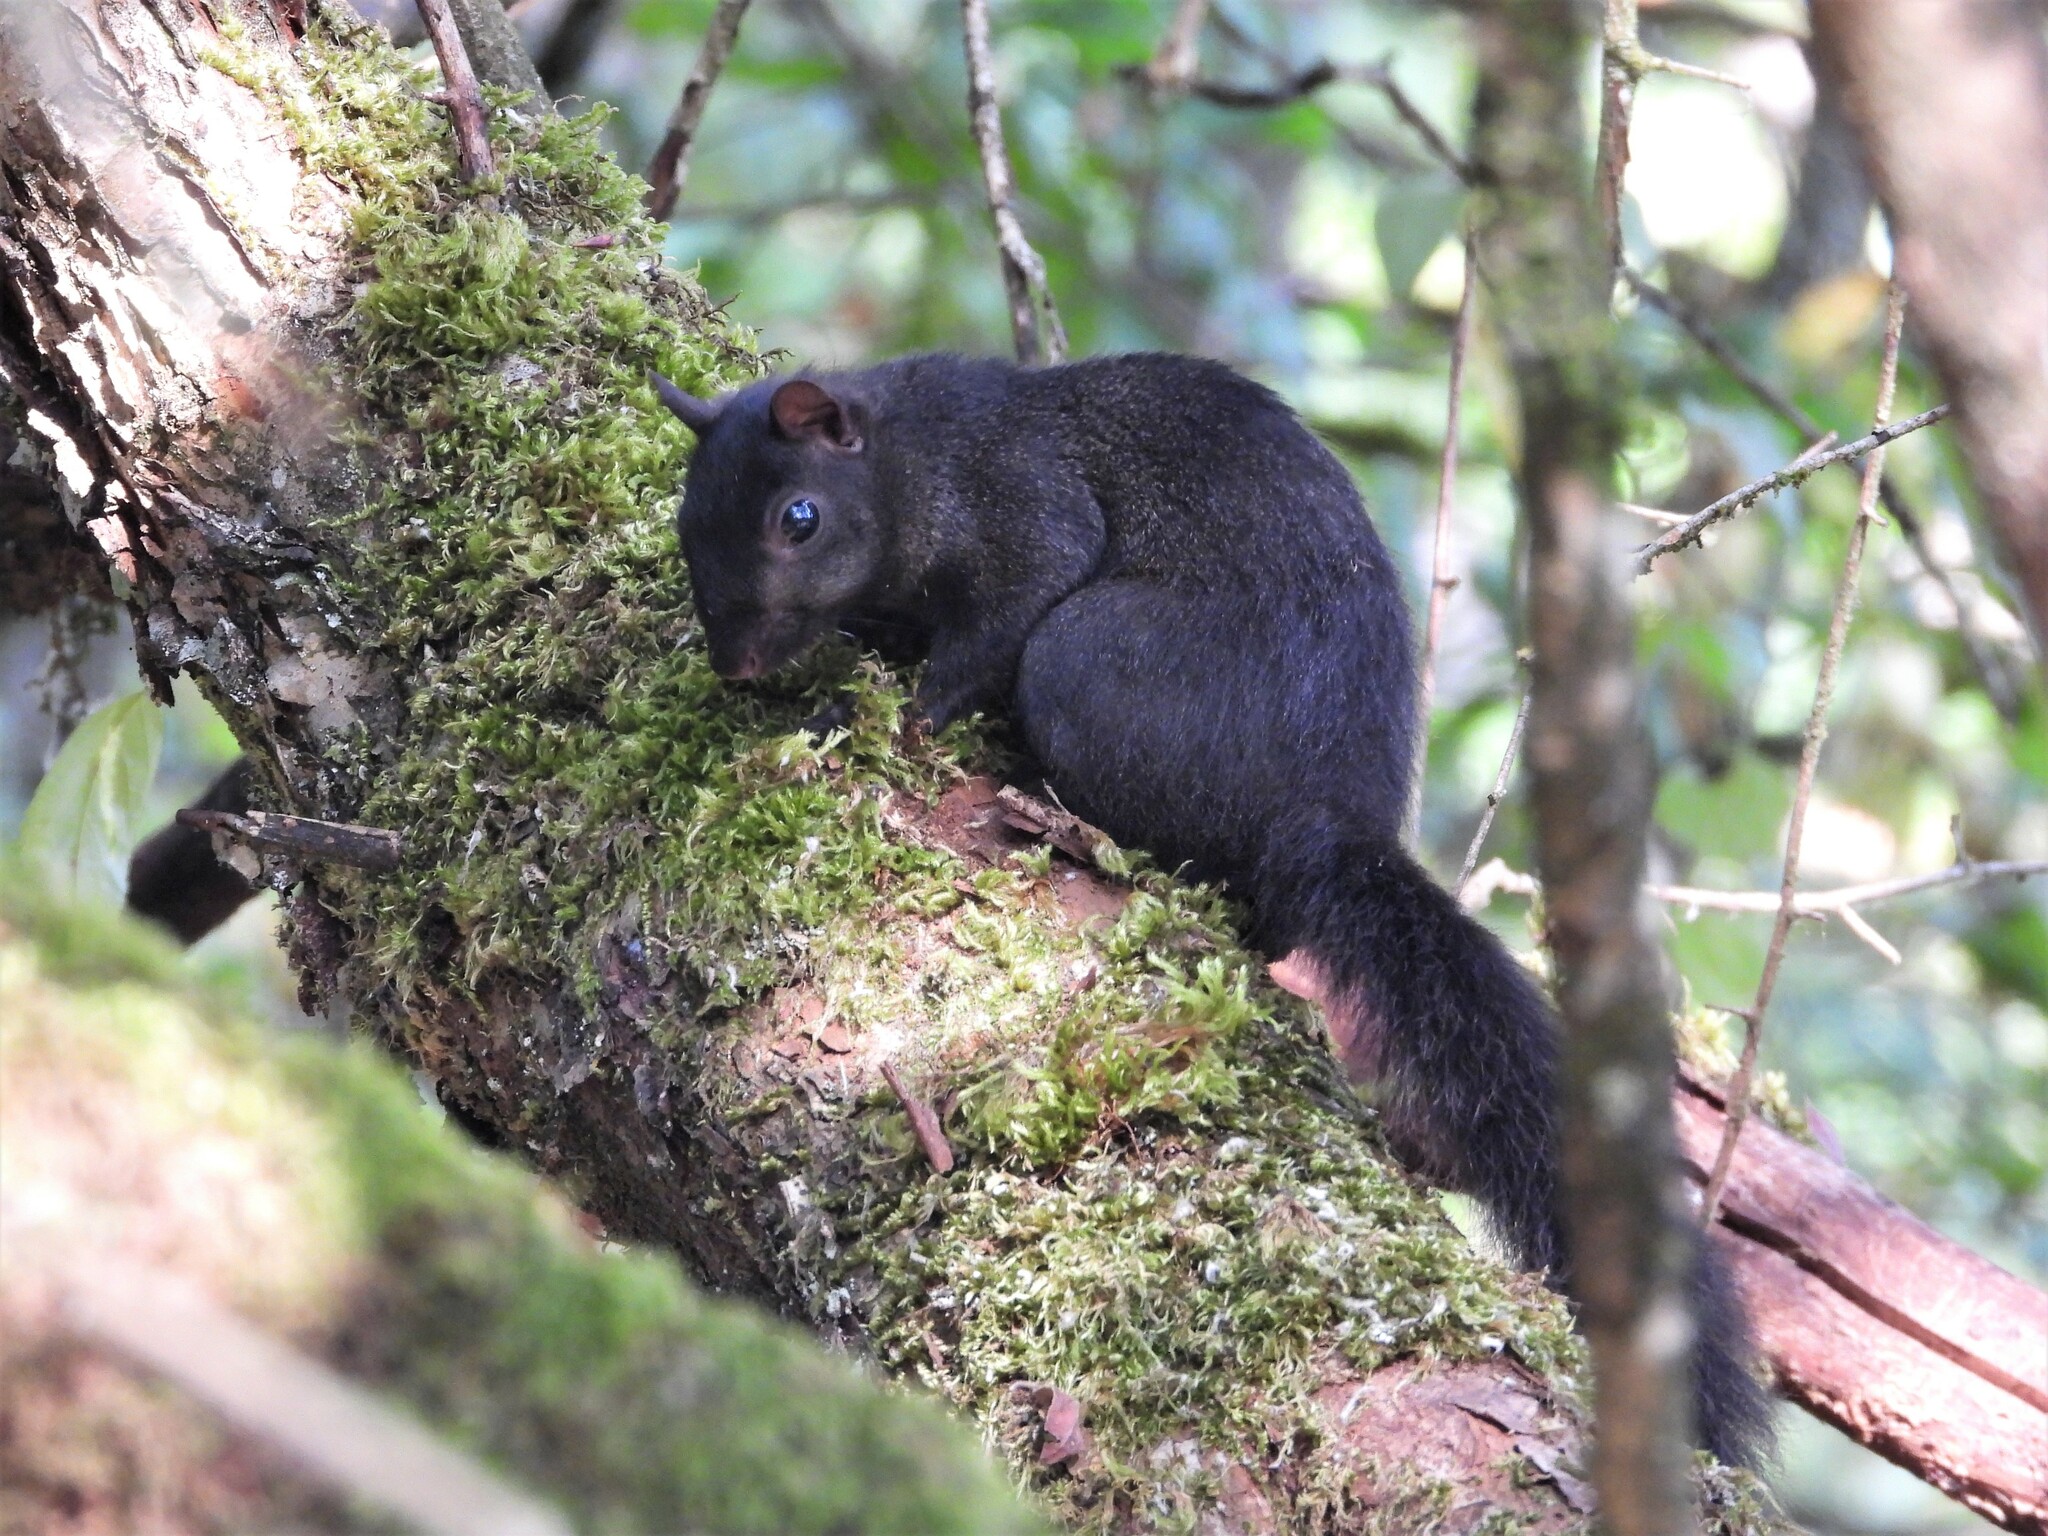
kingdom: Animalia
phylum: Chordata
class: Mammalia
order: Rodentia
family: Sciuridae
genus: Sciurus
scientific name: Sciurus carolinensis
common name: Eastern gray squirrel
